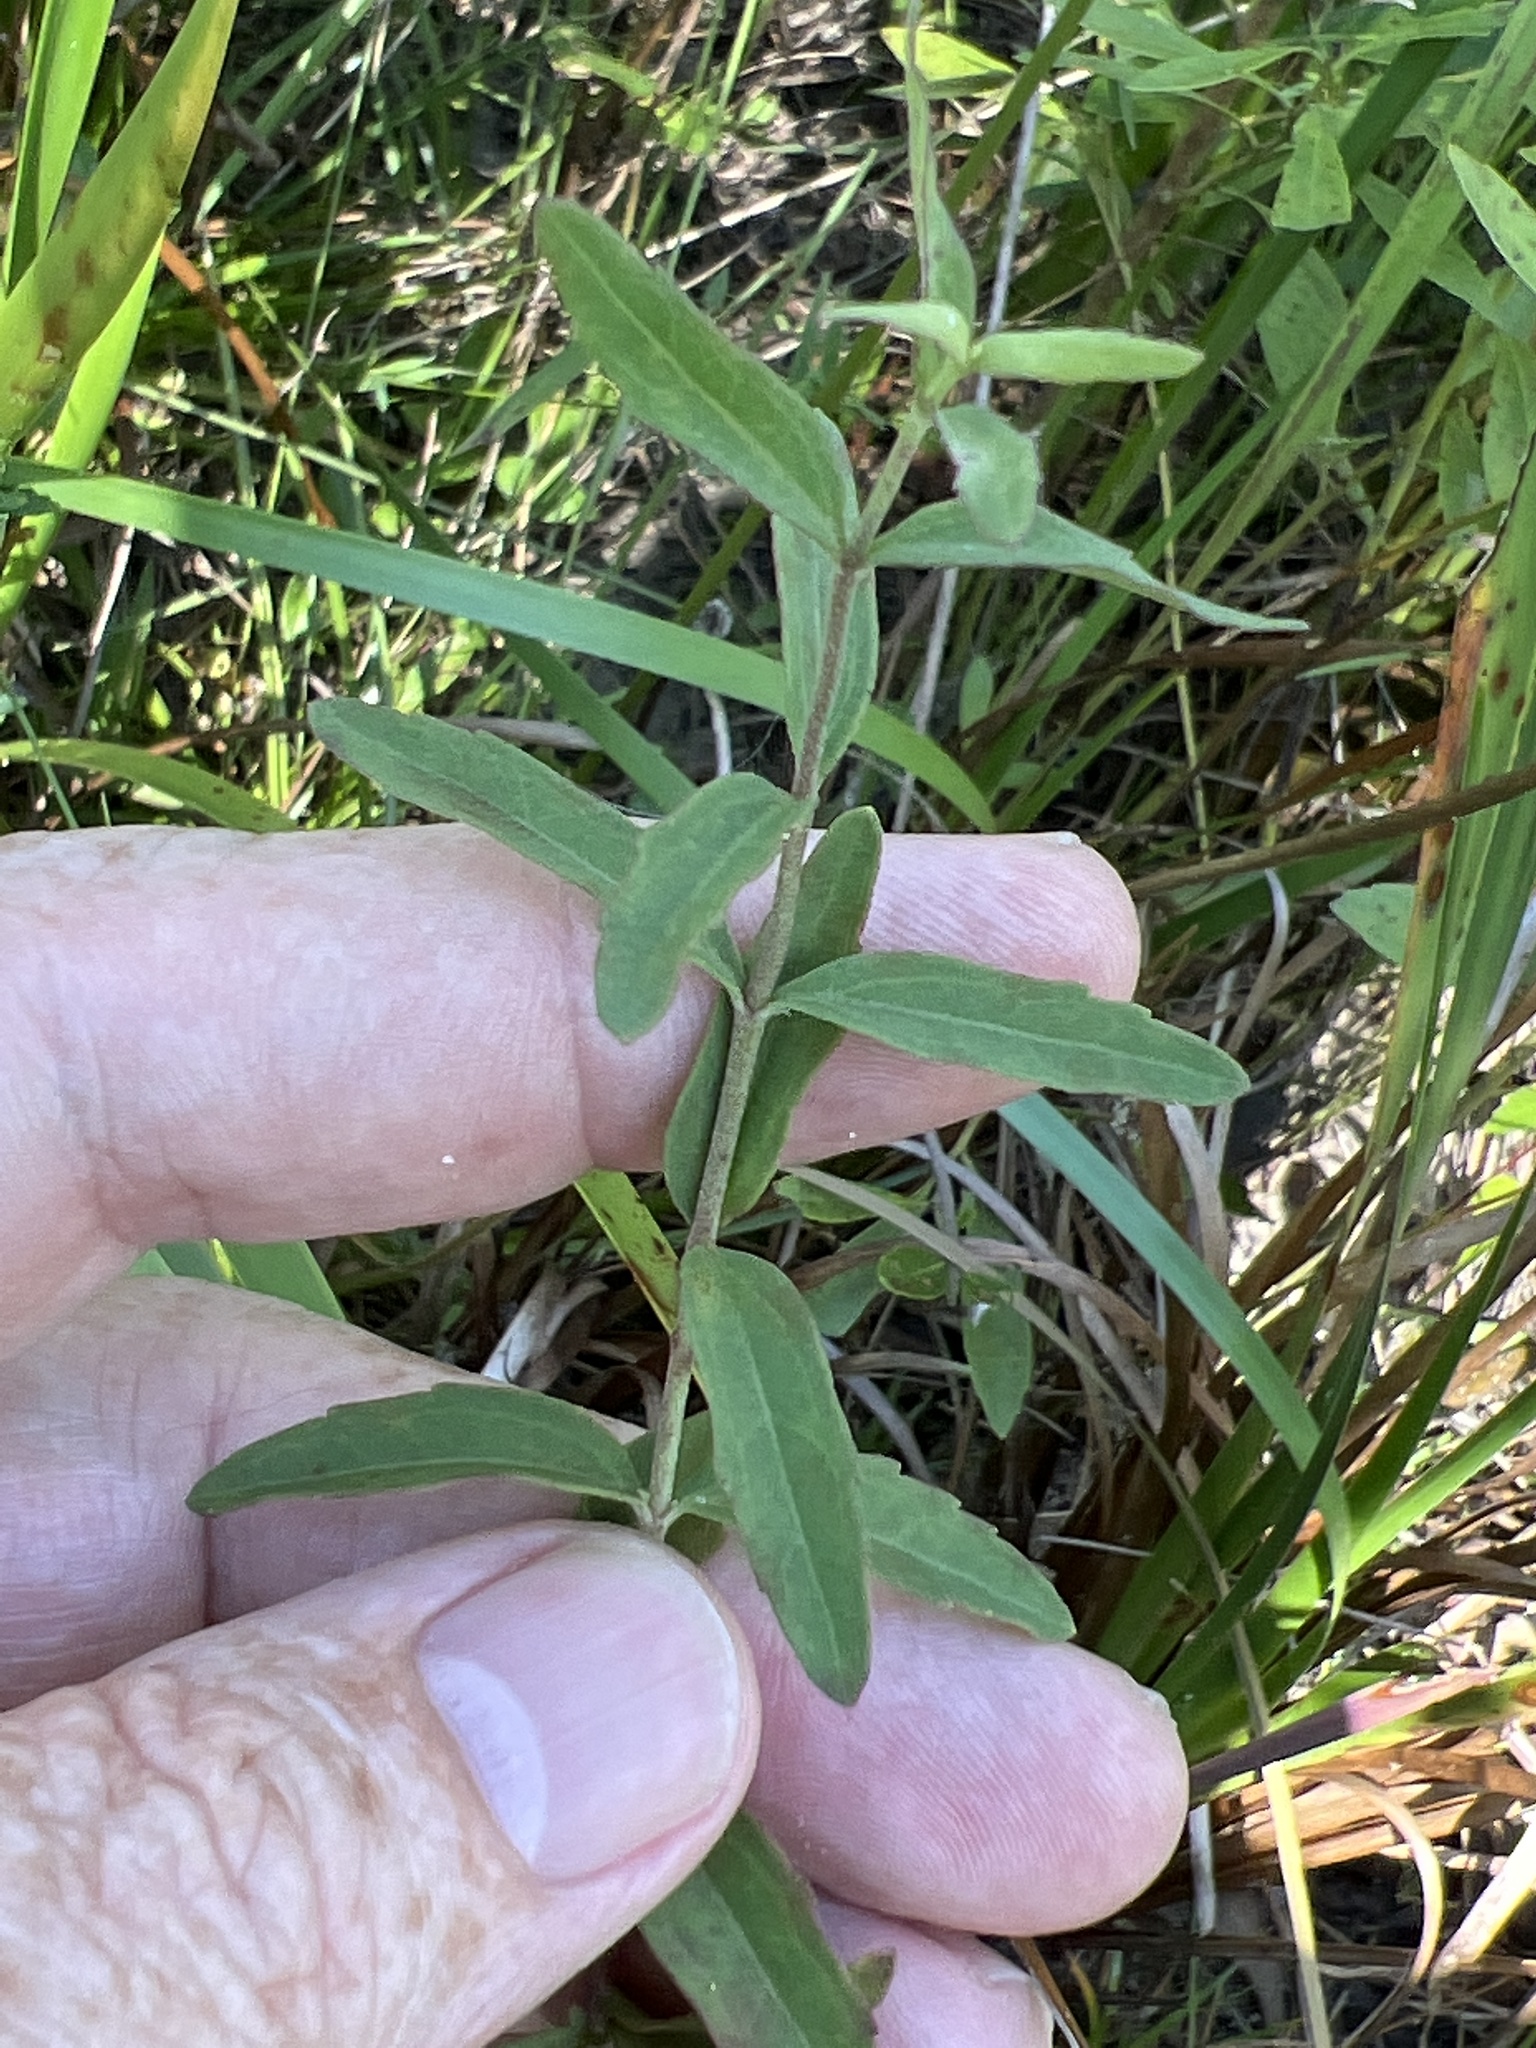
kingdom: Plantae
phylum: Tracheophyta
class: Magnoliopsida
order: Asterales
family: Asteraceae
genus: Eupatorium
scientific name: Eupatorium leucolepis
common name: Justiceweed
